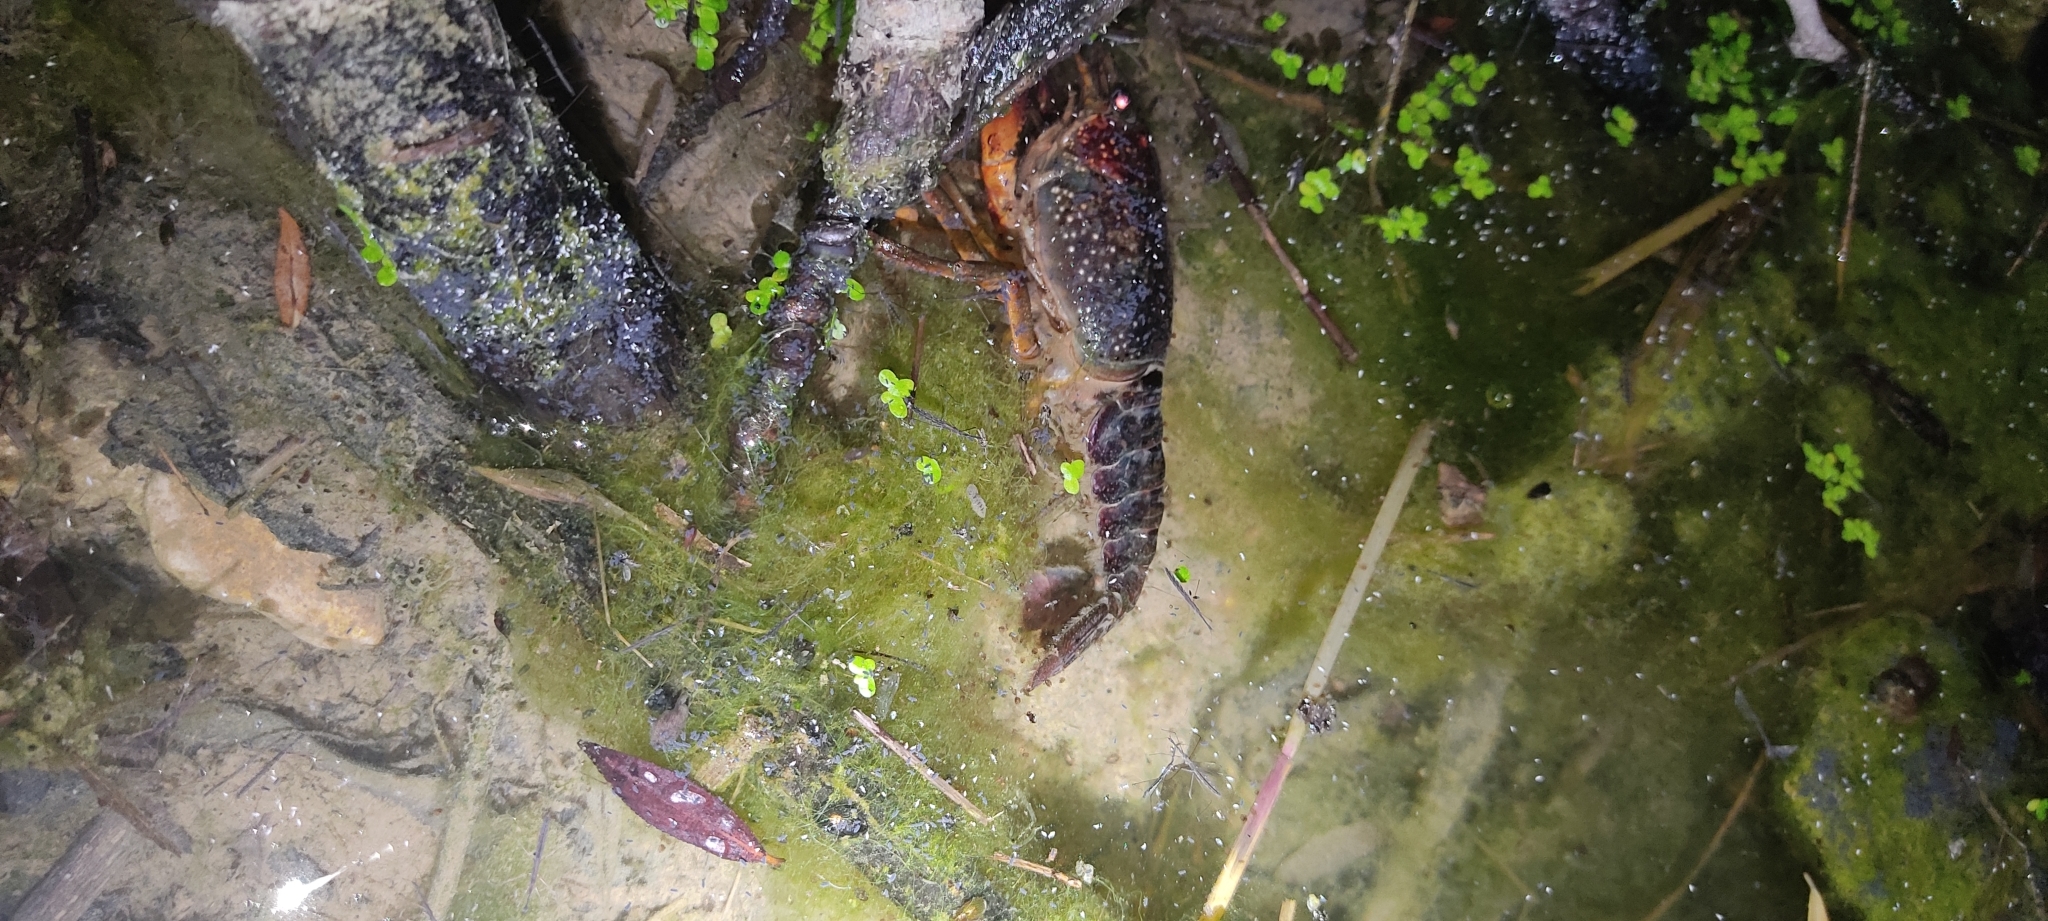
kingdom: Animalia
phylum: Arthropoda
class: Malacostraca
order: Decapoda
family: Cambaridae
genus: Procambarus
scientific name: Procambarus clarkii
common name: Red swamp crayfish
